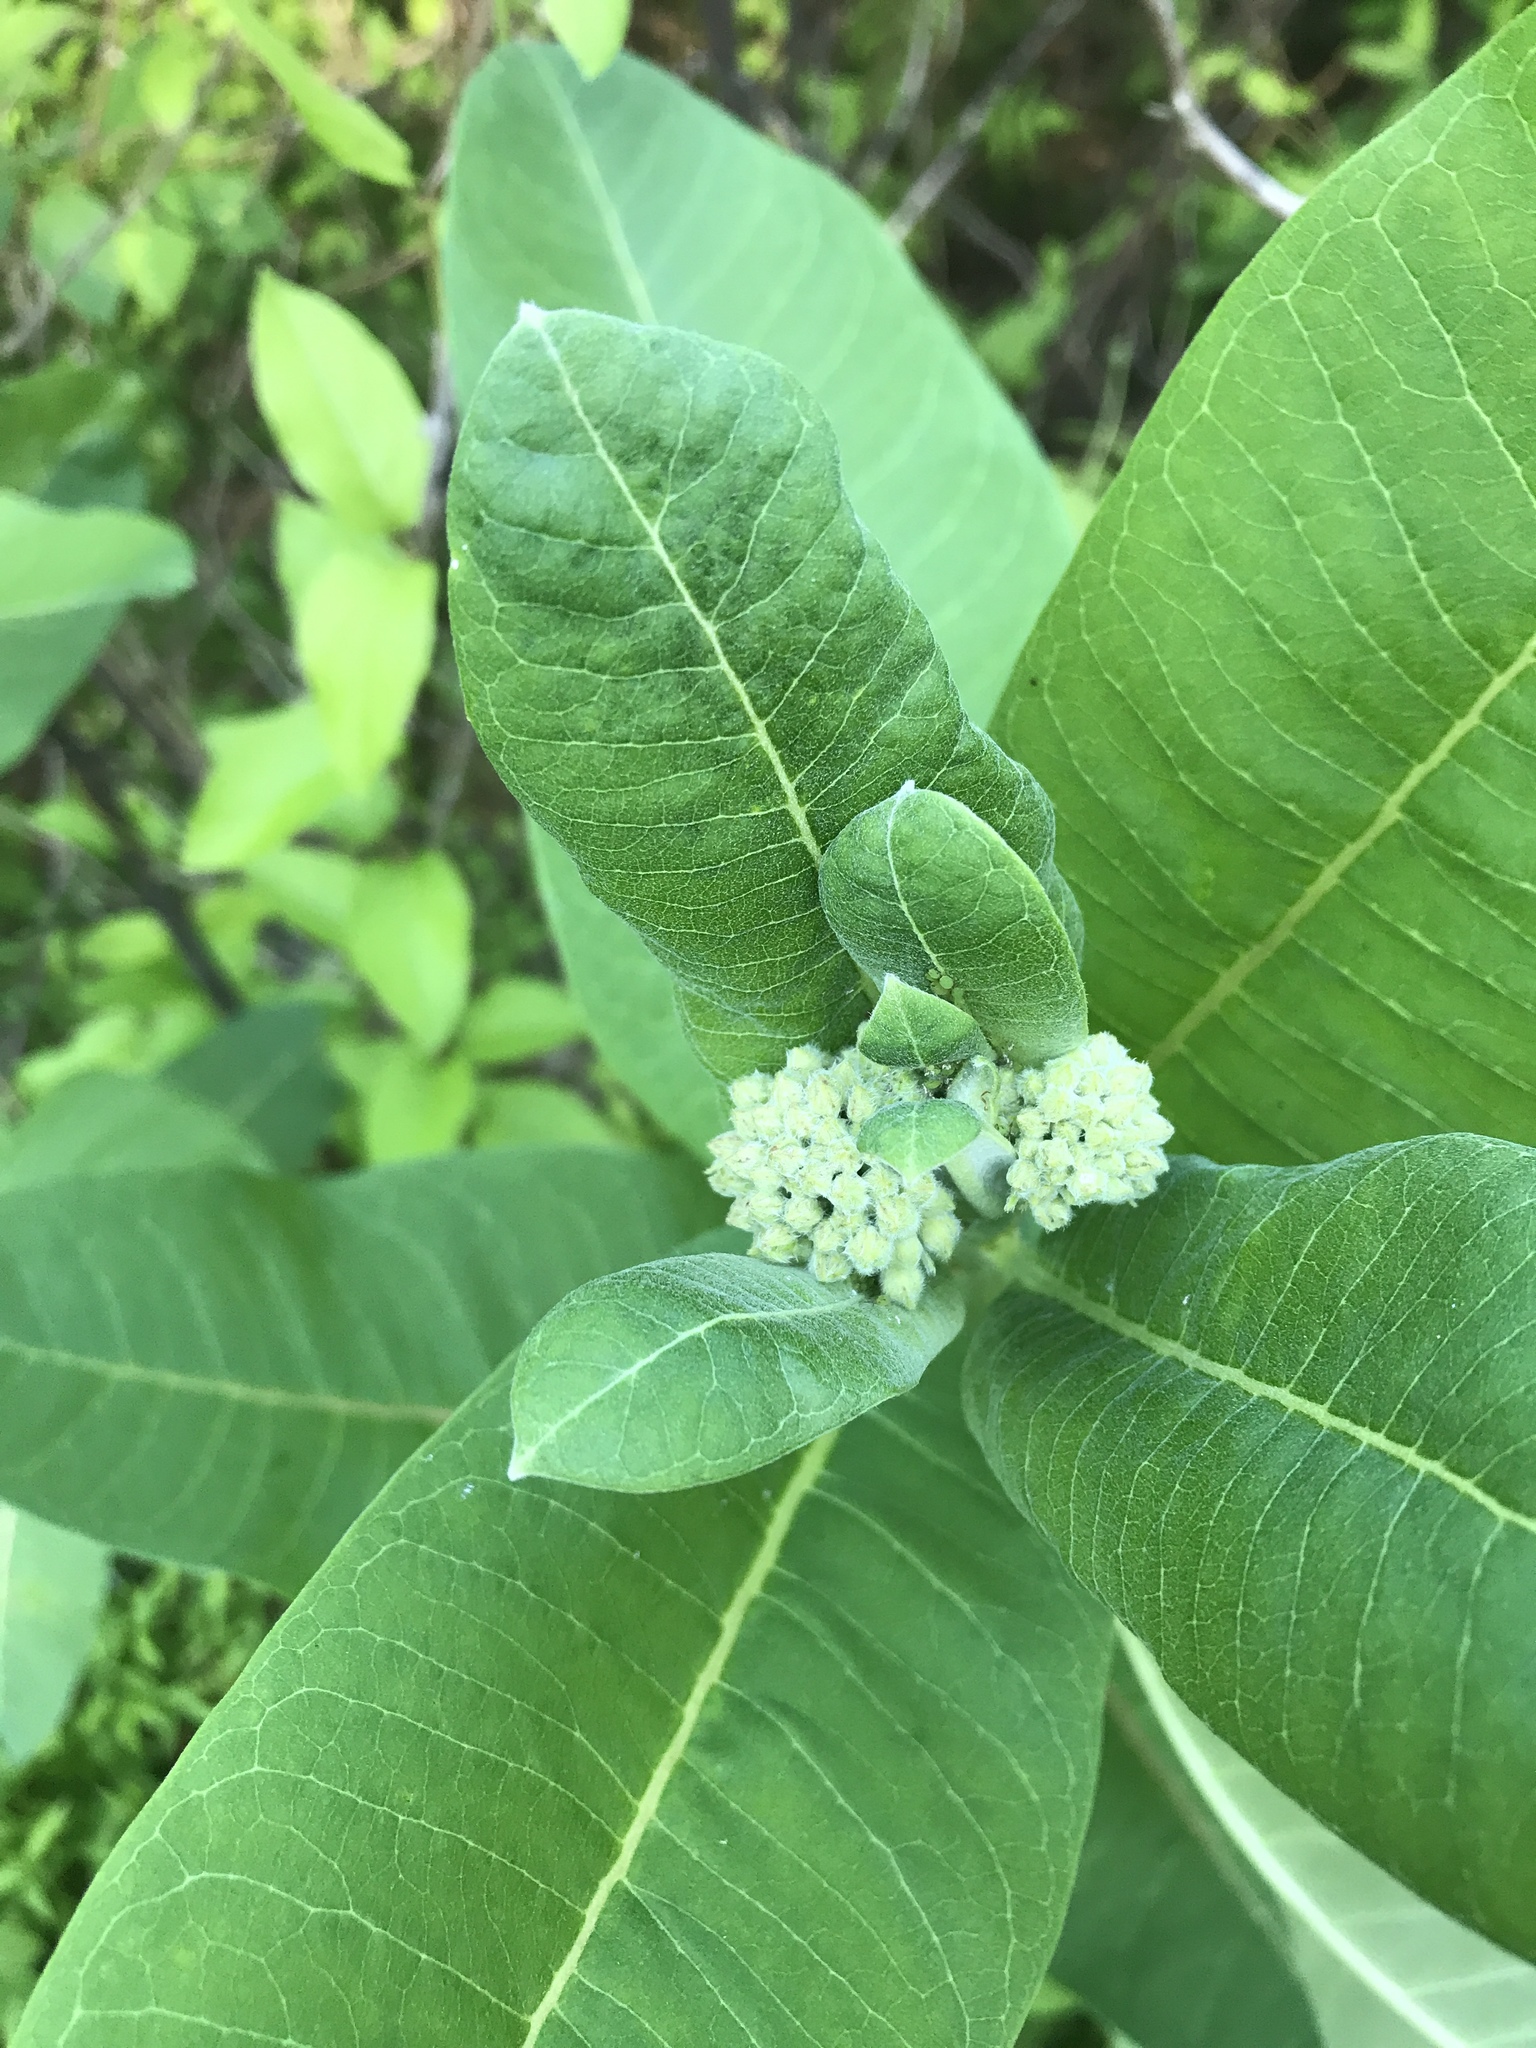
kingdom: Plantae
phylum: Tracheophyta
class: Magnoliopsida
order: Gentianales
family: Apocynaceae
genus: Asclepias
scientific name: Asclepias syriaca
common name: Common milkweed
